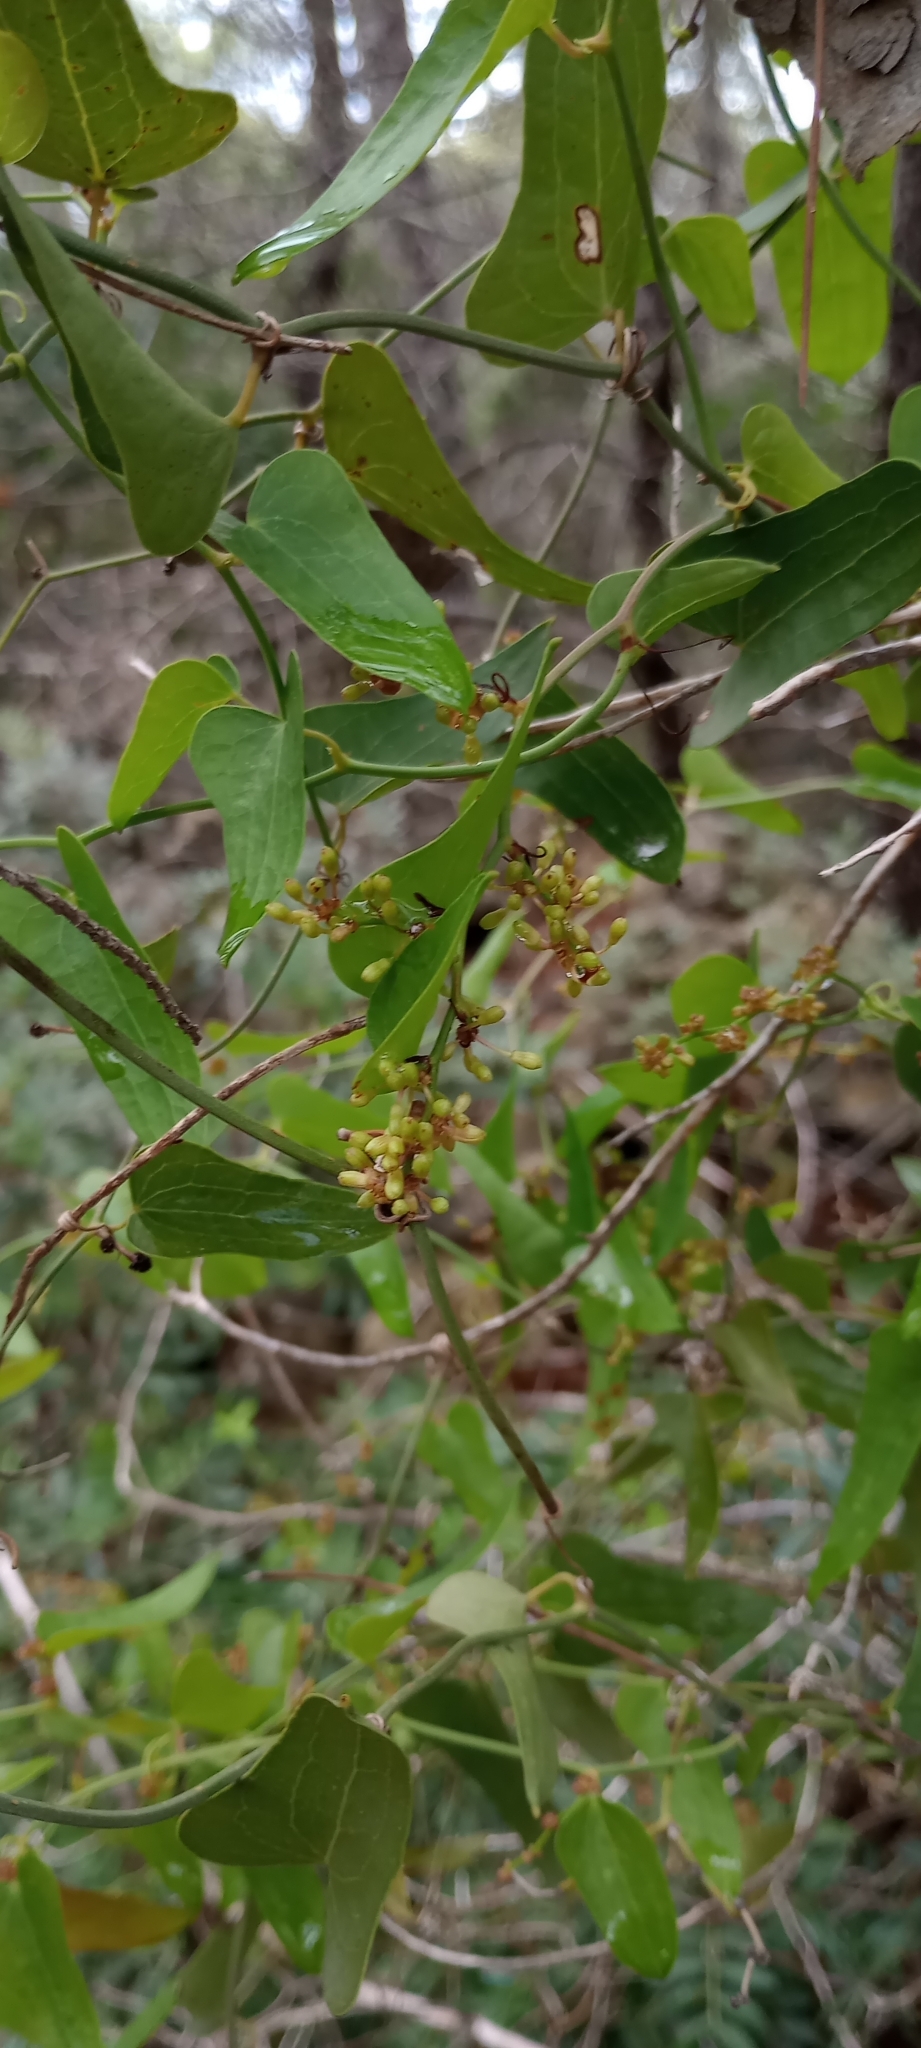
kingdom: Plantae
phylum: Tracheophyta
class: Liliopsida
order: Liliales
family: Smilacaceae
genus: Smilax
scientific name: Smilax aspera
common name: Common smilax
